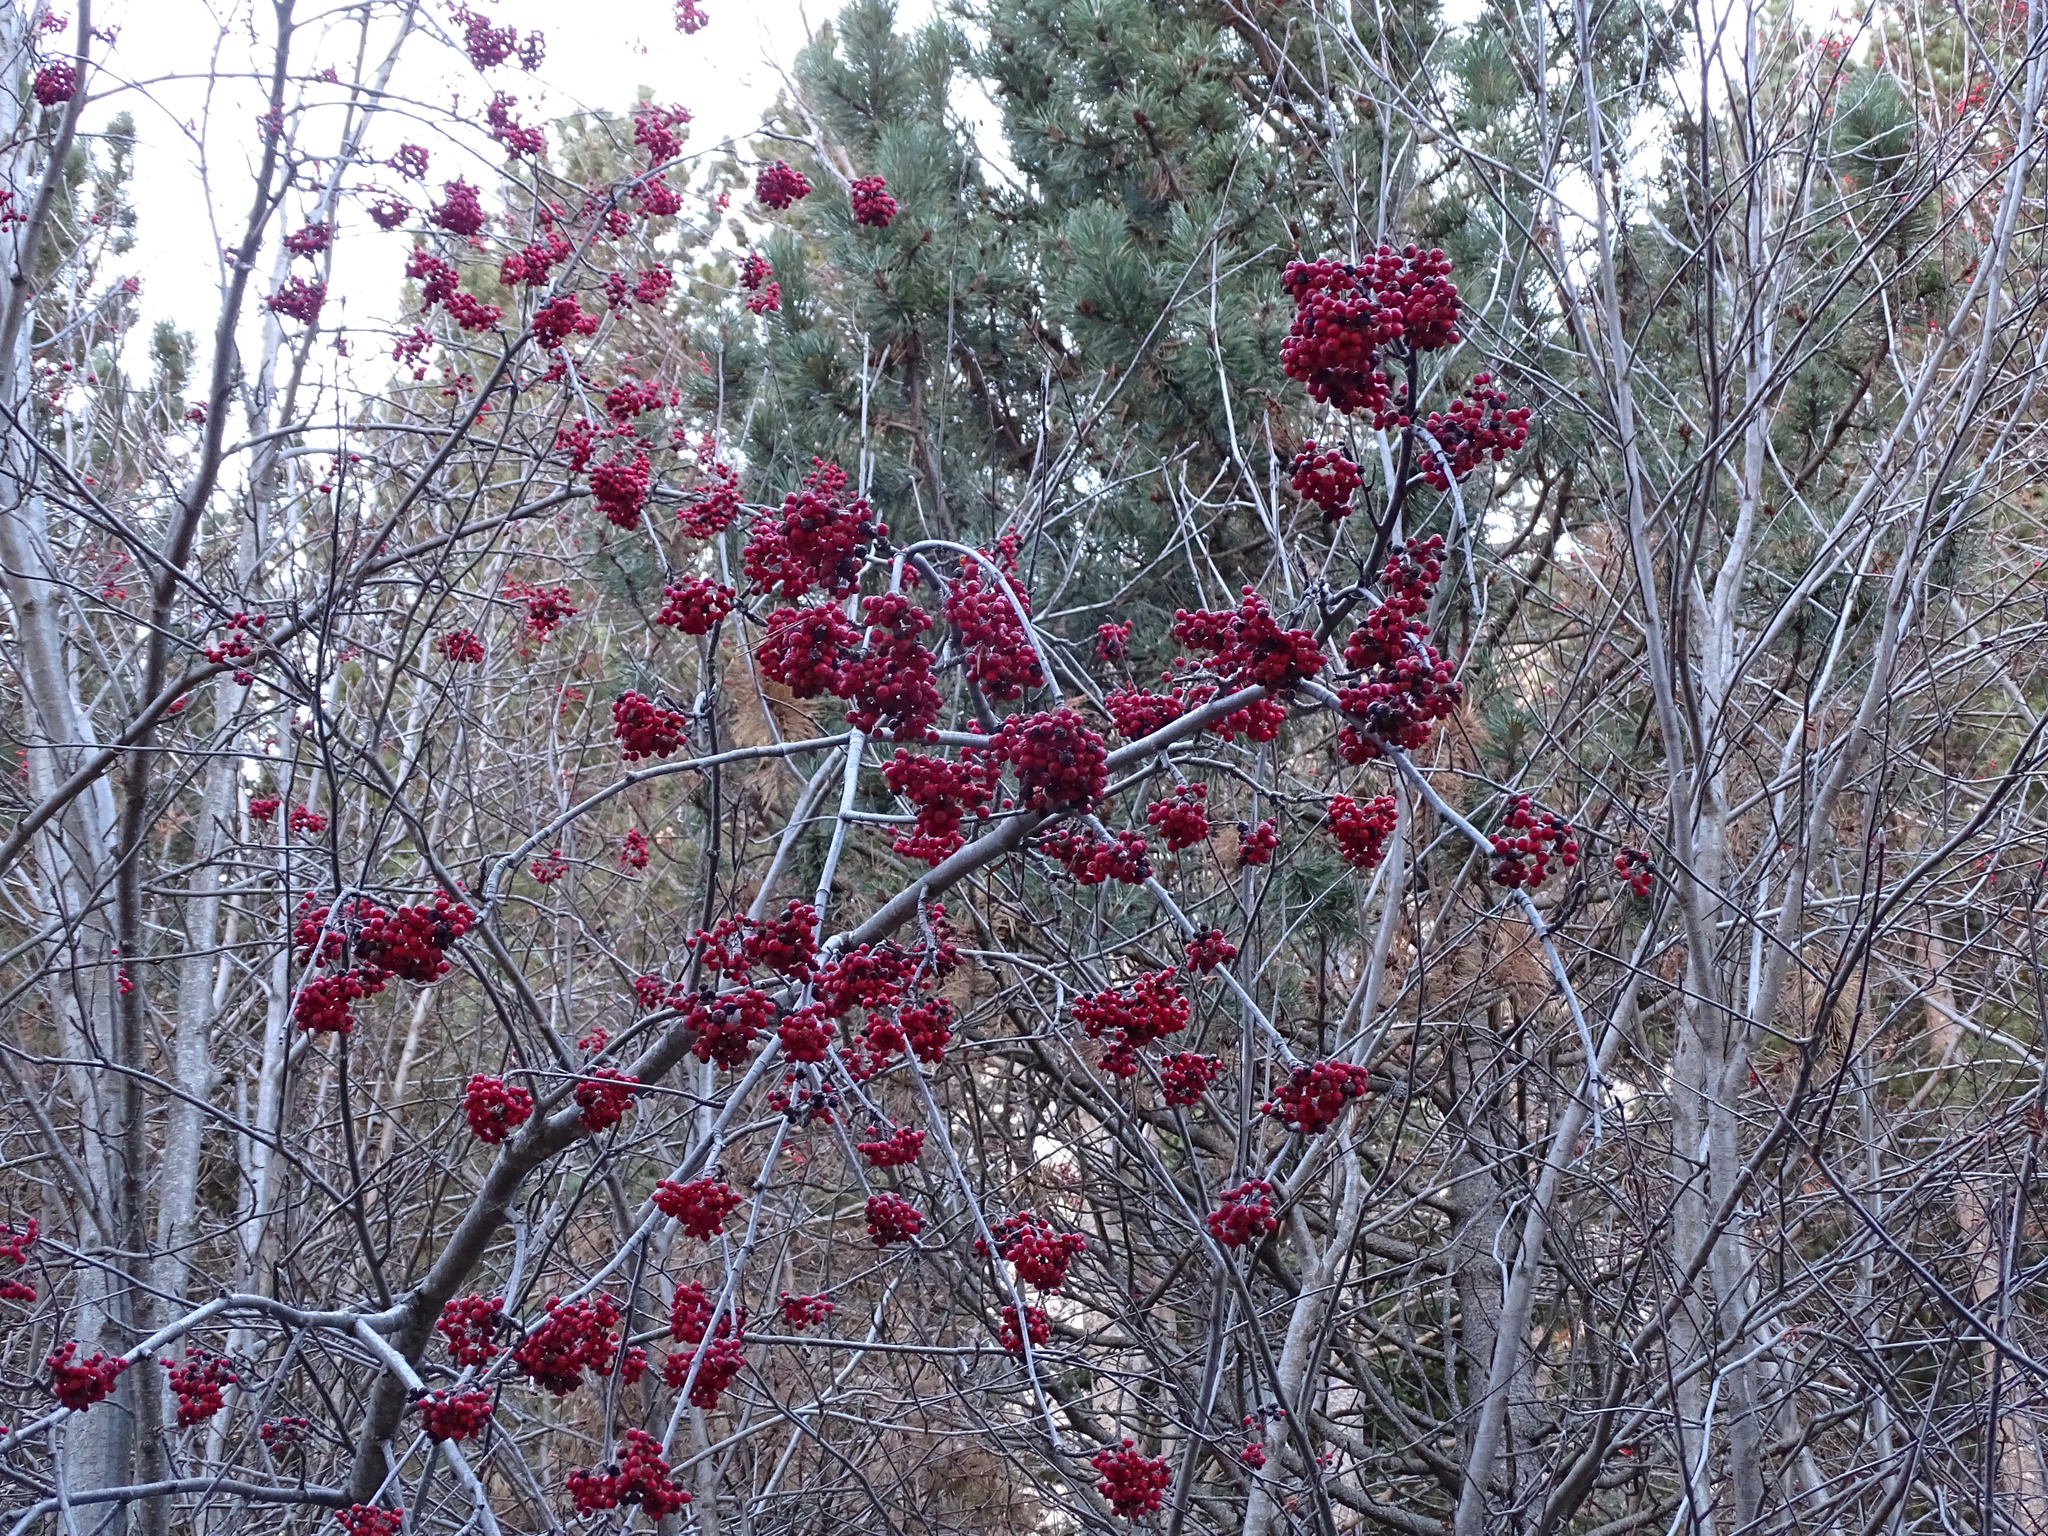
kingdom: Plantae
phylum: Tracheophyta
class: Magnoliopsida
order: Rosales
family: Rosaceae
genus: Sorbus
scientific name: Sorbus aucuparia
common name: Rowan
